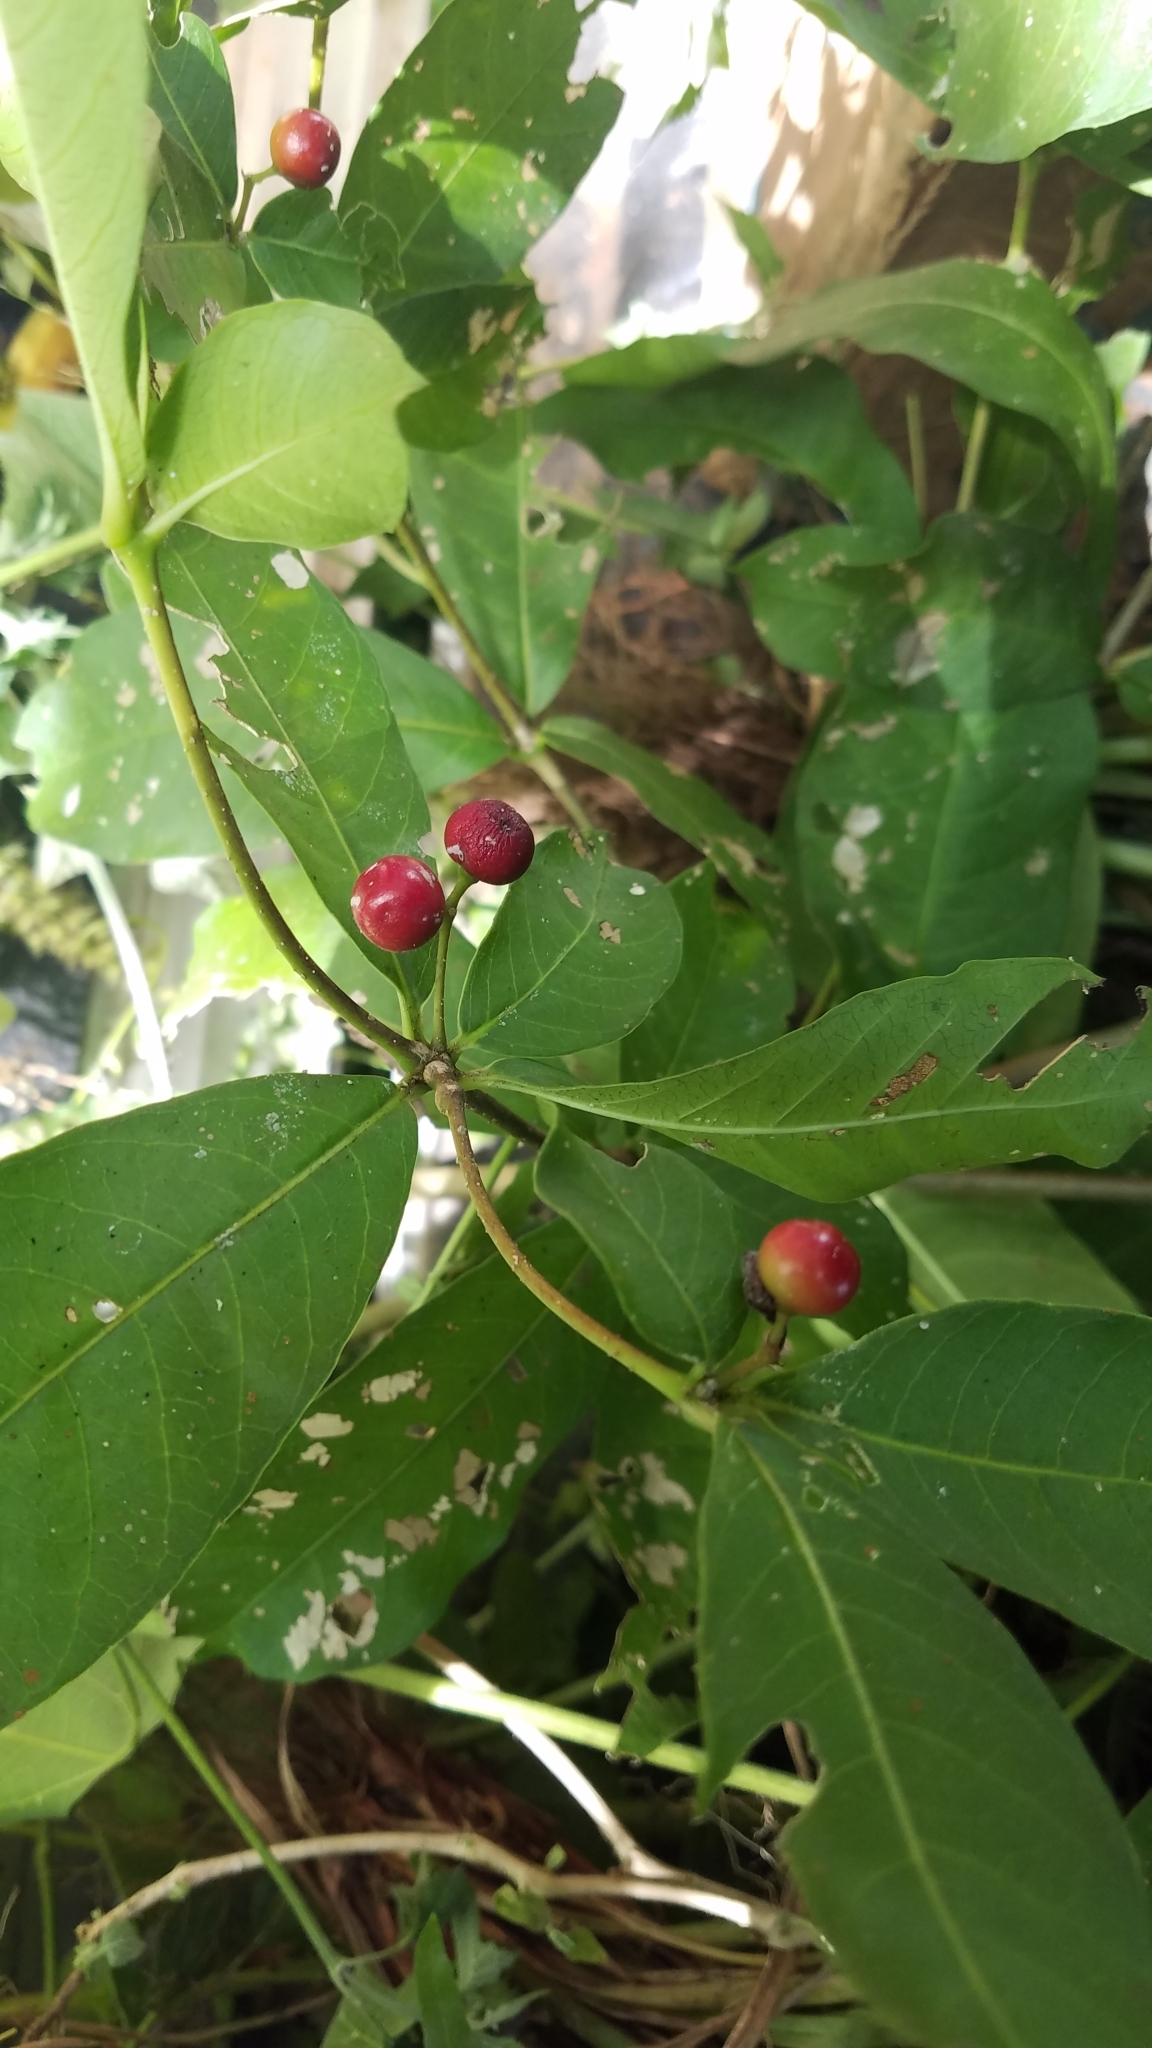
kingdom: Plantae
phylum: Tracheophyta
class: Magnoliopsida
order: Gentianales
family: Apocynaceae
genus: Rauvolfia
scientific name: Rauvolfia tetraphylla
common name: Four-leaf devil-pepper
